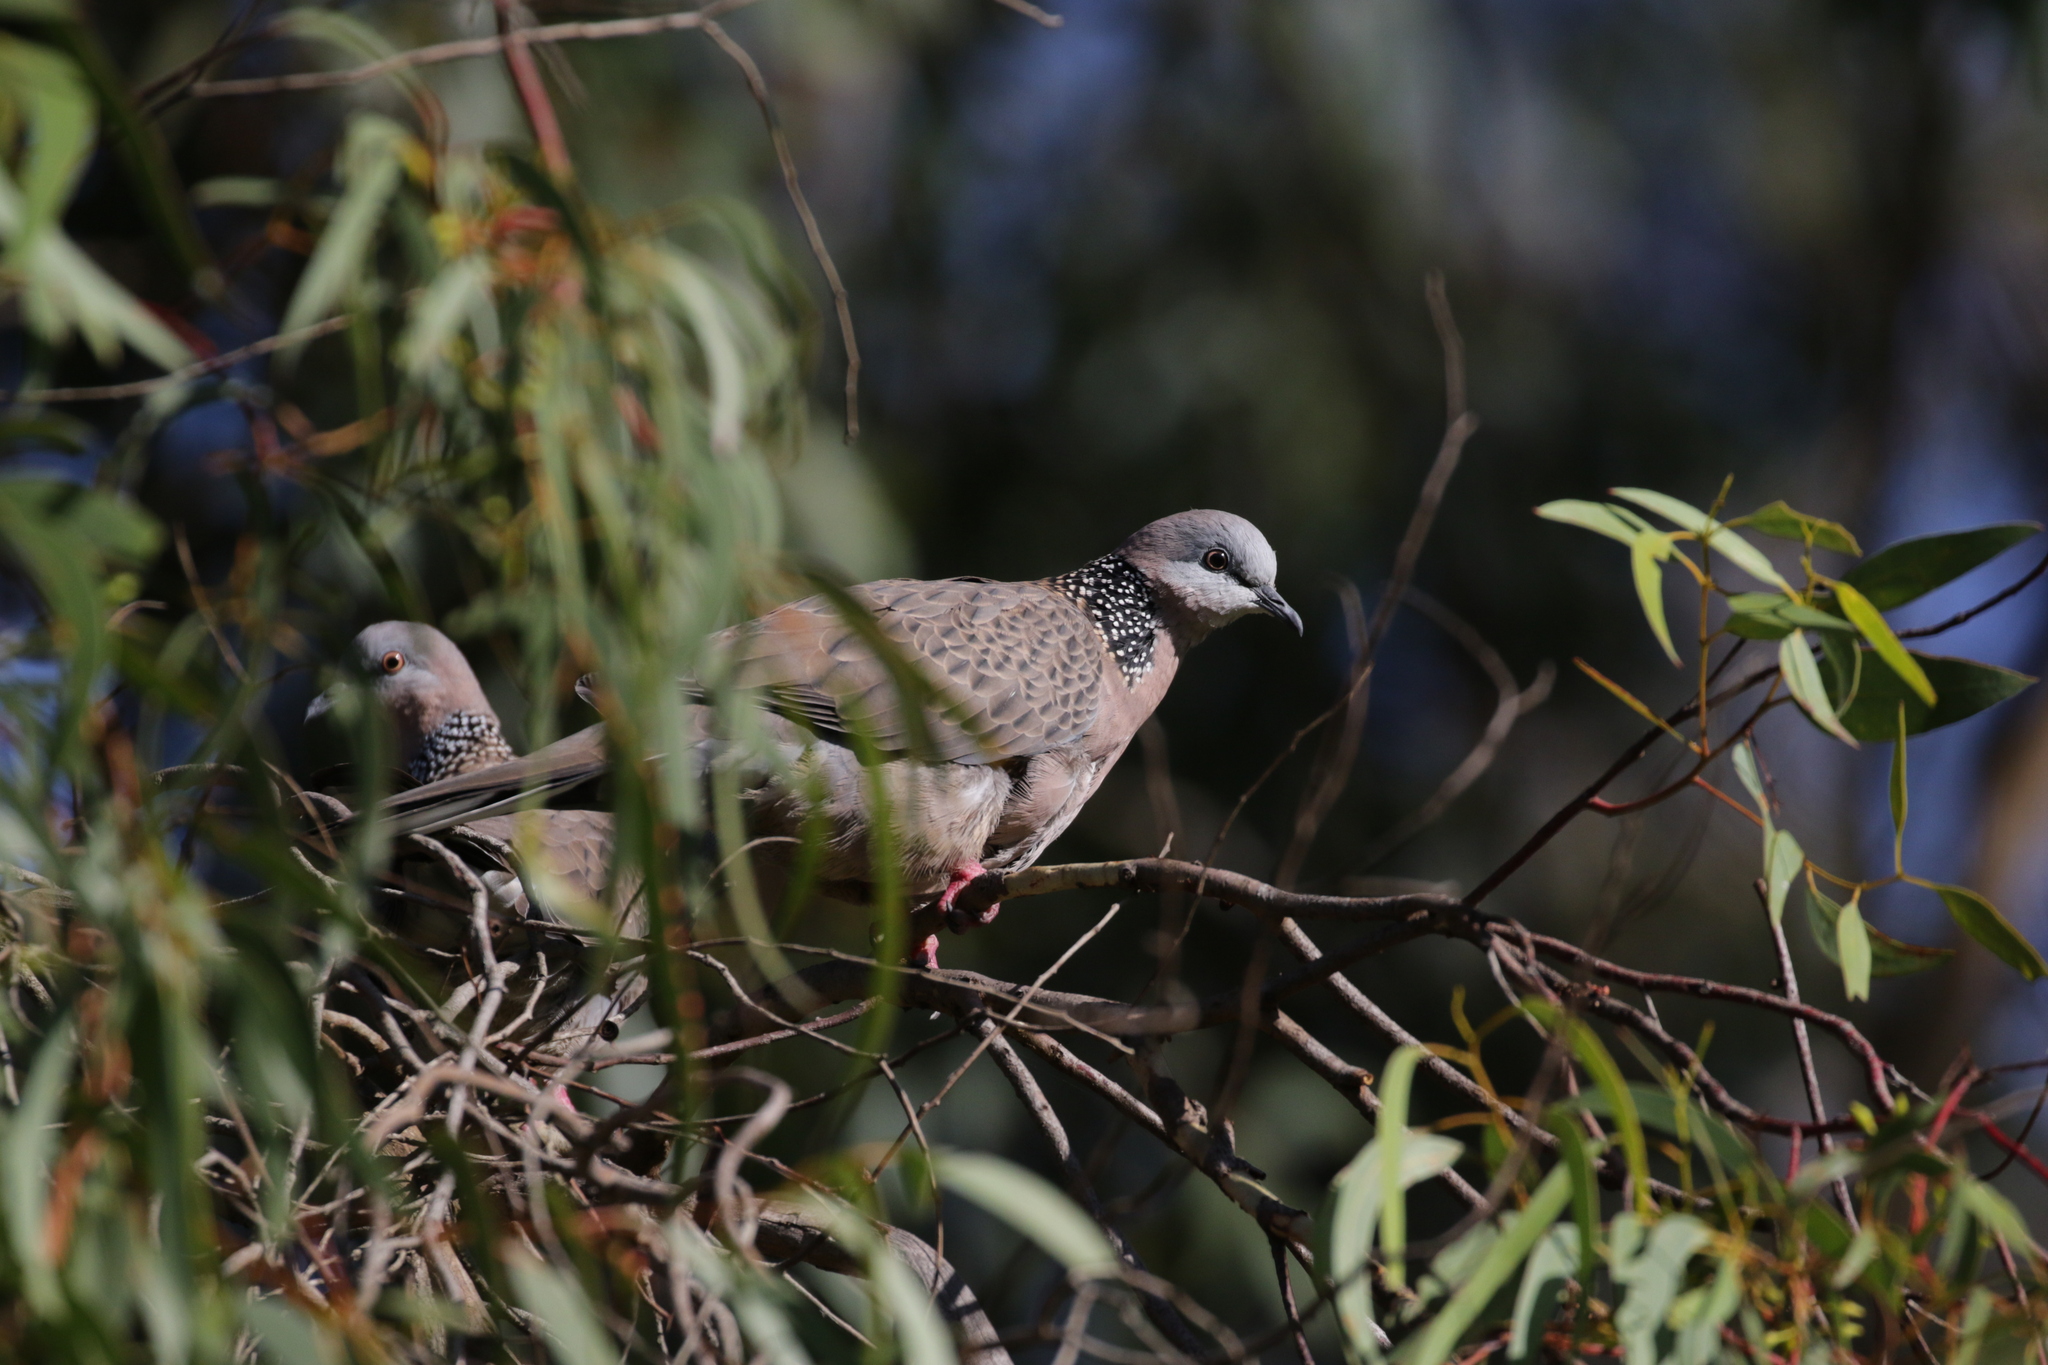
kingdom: Animalia
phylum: Chordata
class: Aves
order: Columbiformes
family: Columbidae
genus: Spilopelia
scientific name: Spilopelia chinensis
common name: Spotted dove
